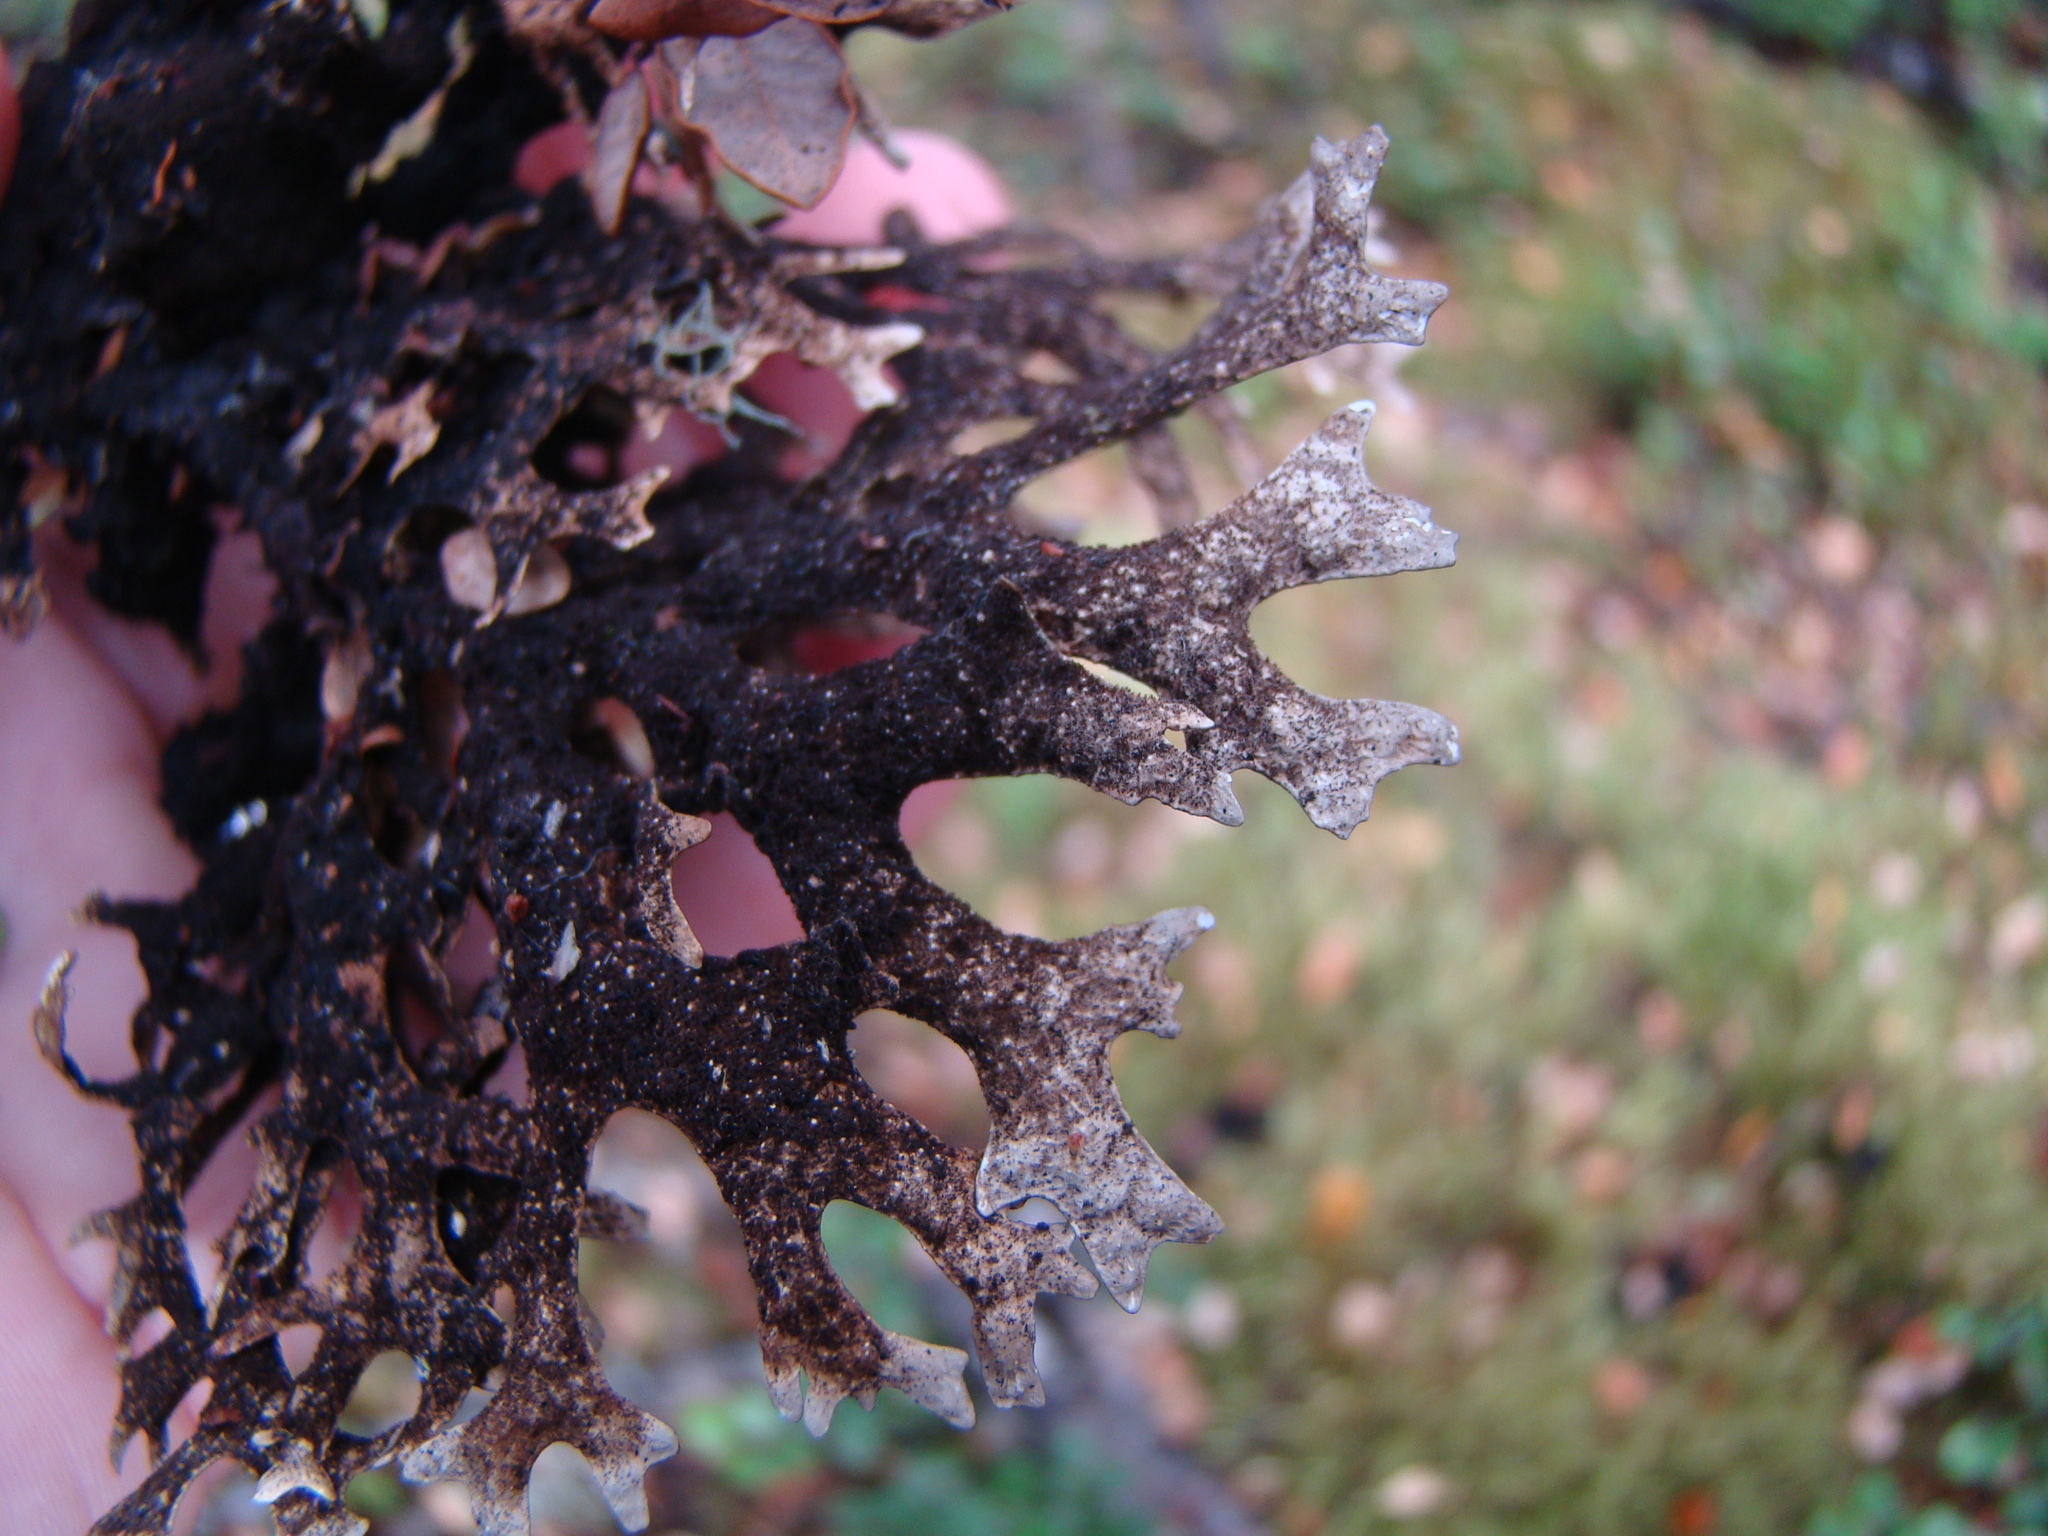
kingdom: Fungi
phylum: Ascomycota
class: Lecanoromycetes
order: Peltigerales
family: Lobariaceae
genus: Pseudocyphellaria
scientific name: Pseudocyphellaria billardierei
